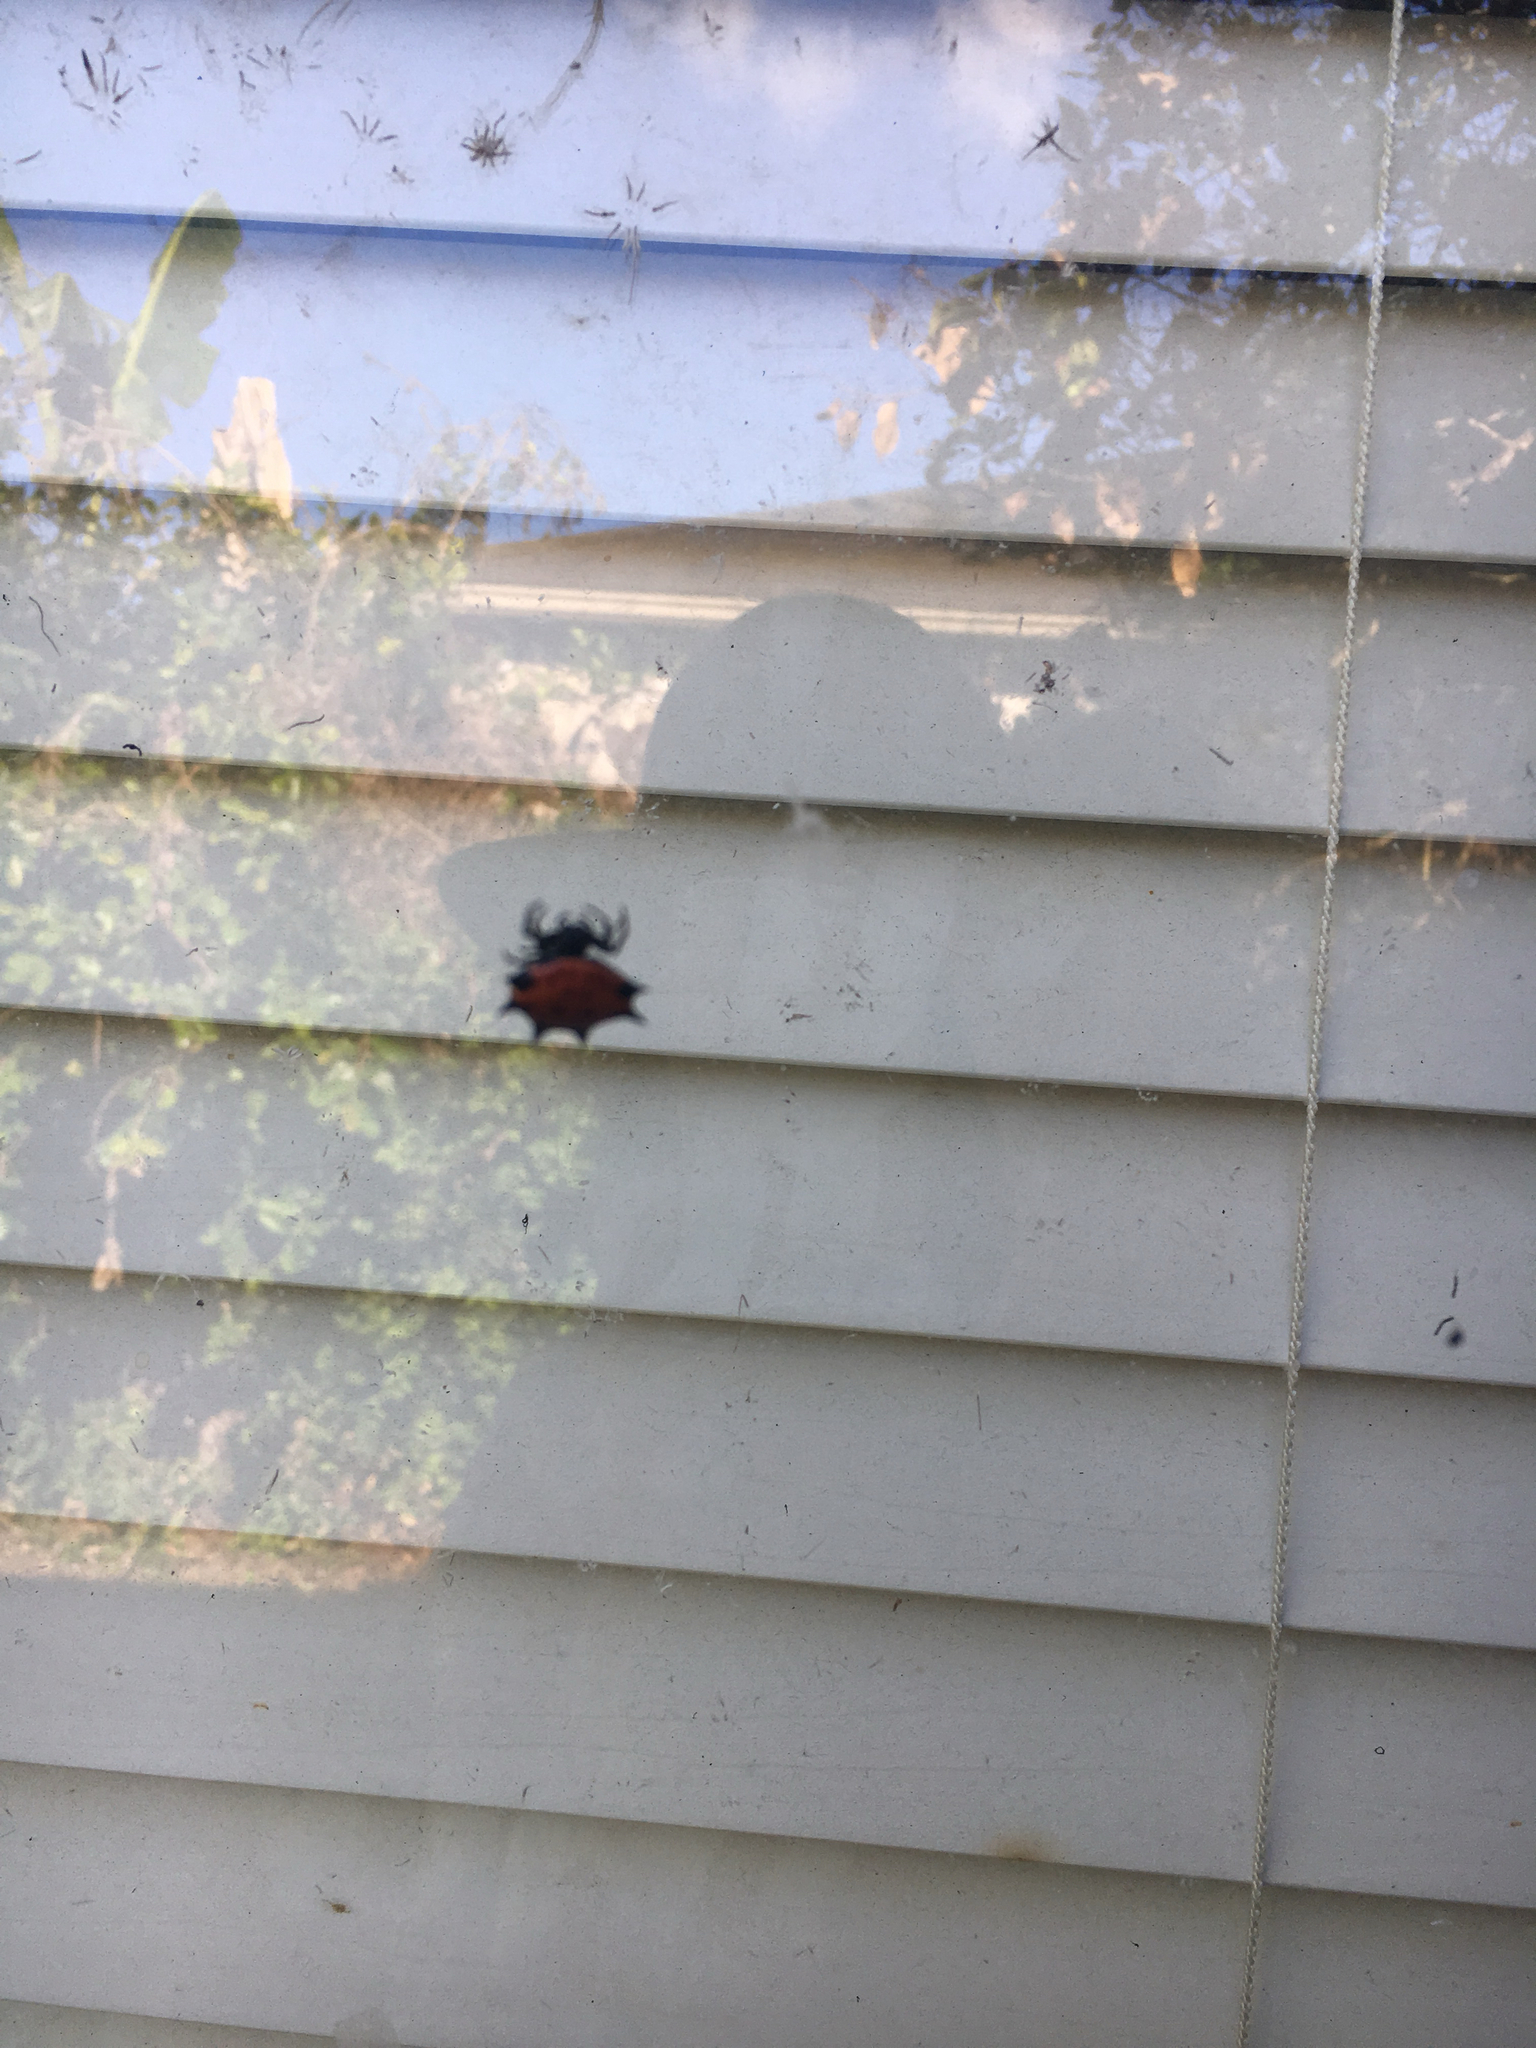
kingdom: Animalia
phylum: Arthropoda
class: Arachnida
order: Araneae
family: Araneidae
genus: Gasteracantha
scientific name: Gasteracantha cancriformis
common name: Orb weavers
